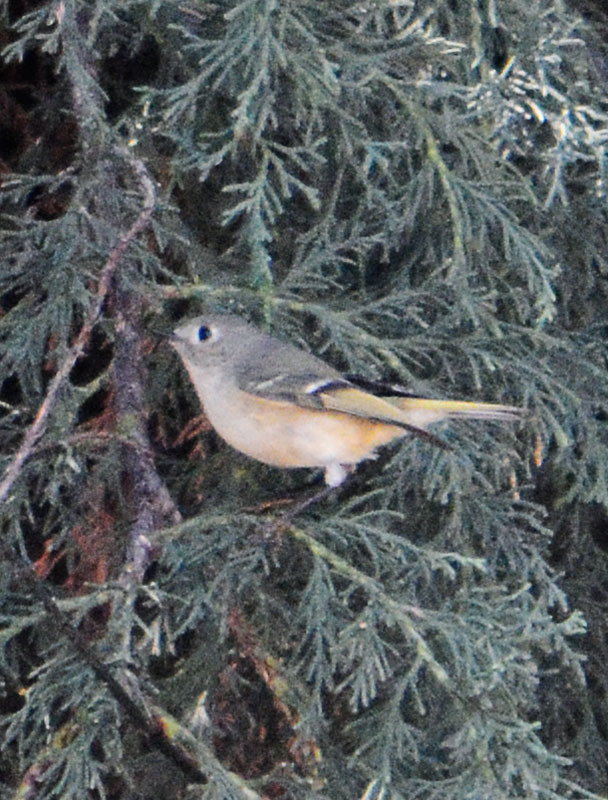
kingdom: Animalia
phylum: Chordata
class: Aves
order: Passeriformes
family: Regulidae
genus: Regulus
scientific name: Regulus calendula
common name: Ruby-crowned kinglet
